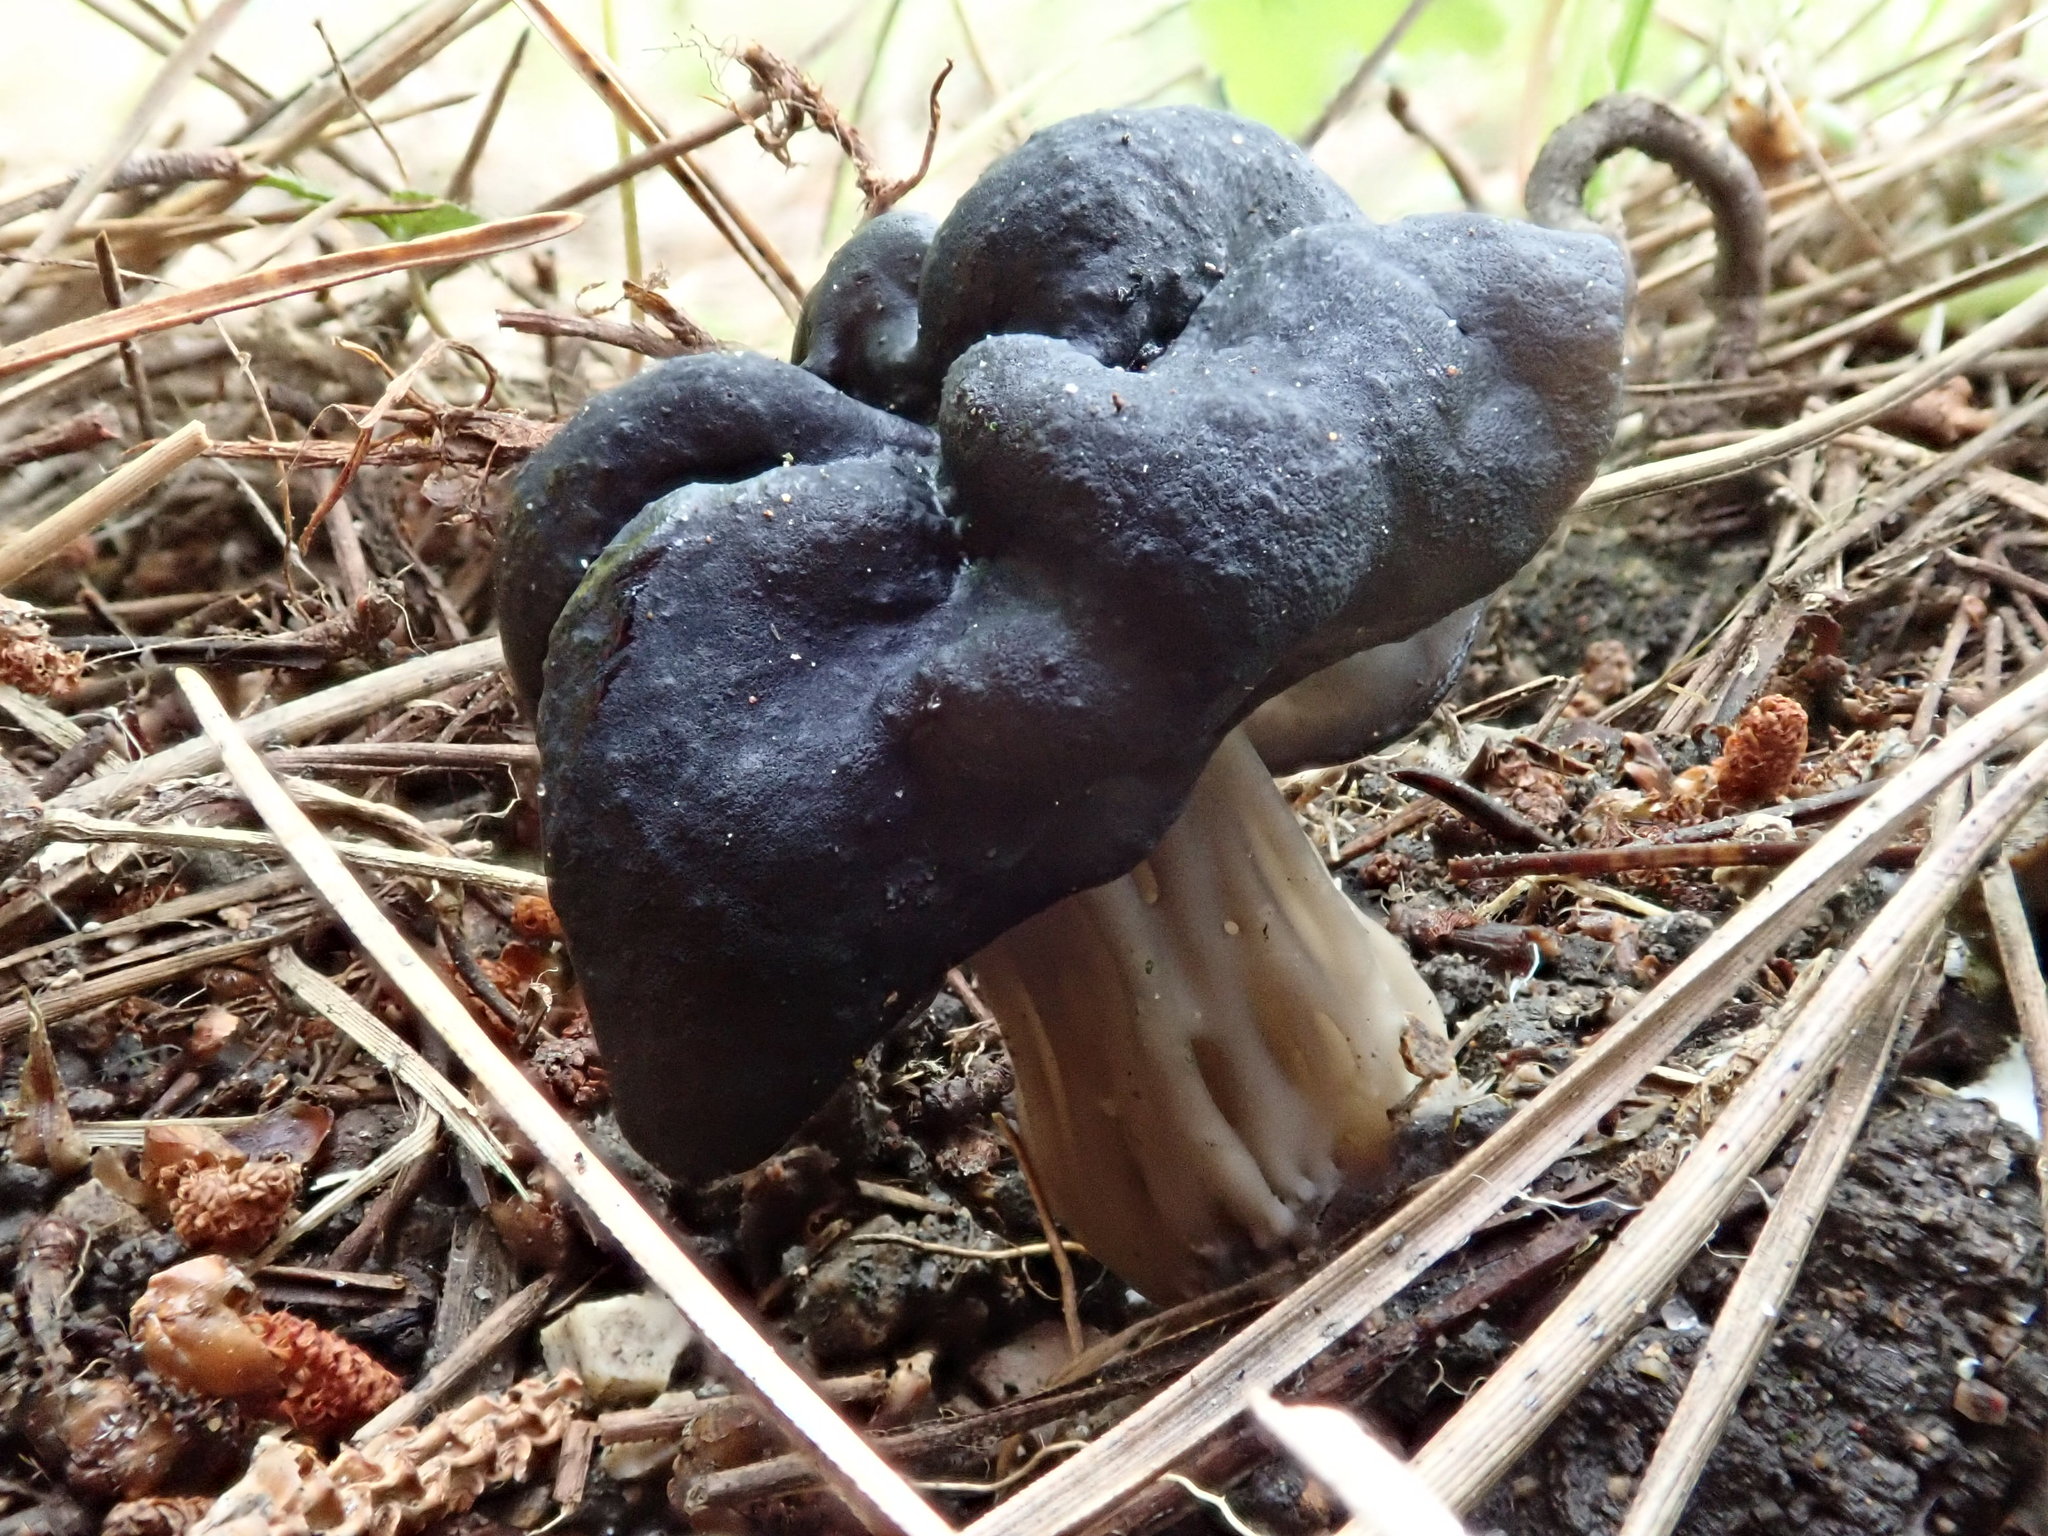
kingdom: Fungi
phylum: Ascomycota
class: Pezizomycetes
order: Pezizales
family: Helvellaceae
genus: Helvella
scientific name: Helvella vespertina
